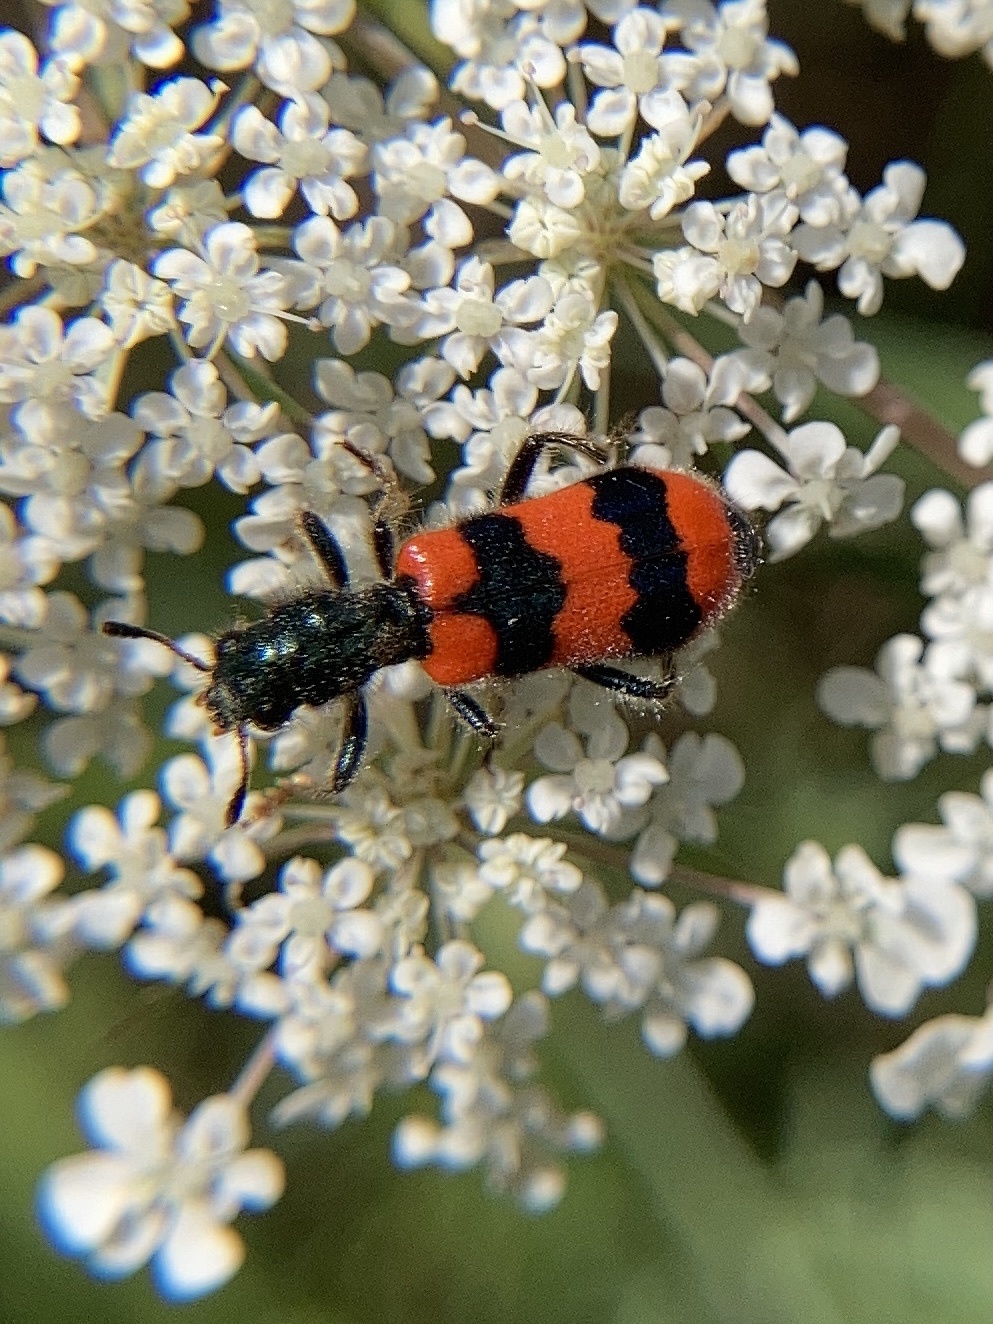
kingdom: Animalia
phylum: Arthropoda
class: Insecta
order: Coleoptera
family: Cleridae
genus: Trichodes
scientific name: Trichodes apiarius
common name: Bee-eating beetle
